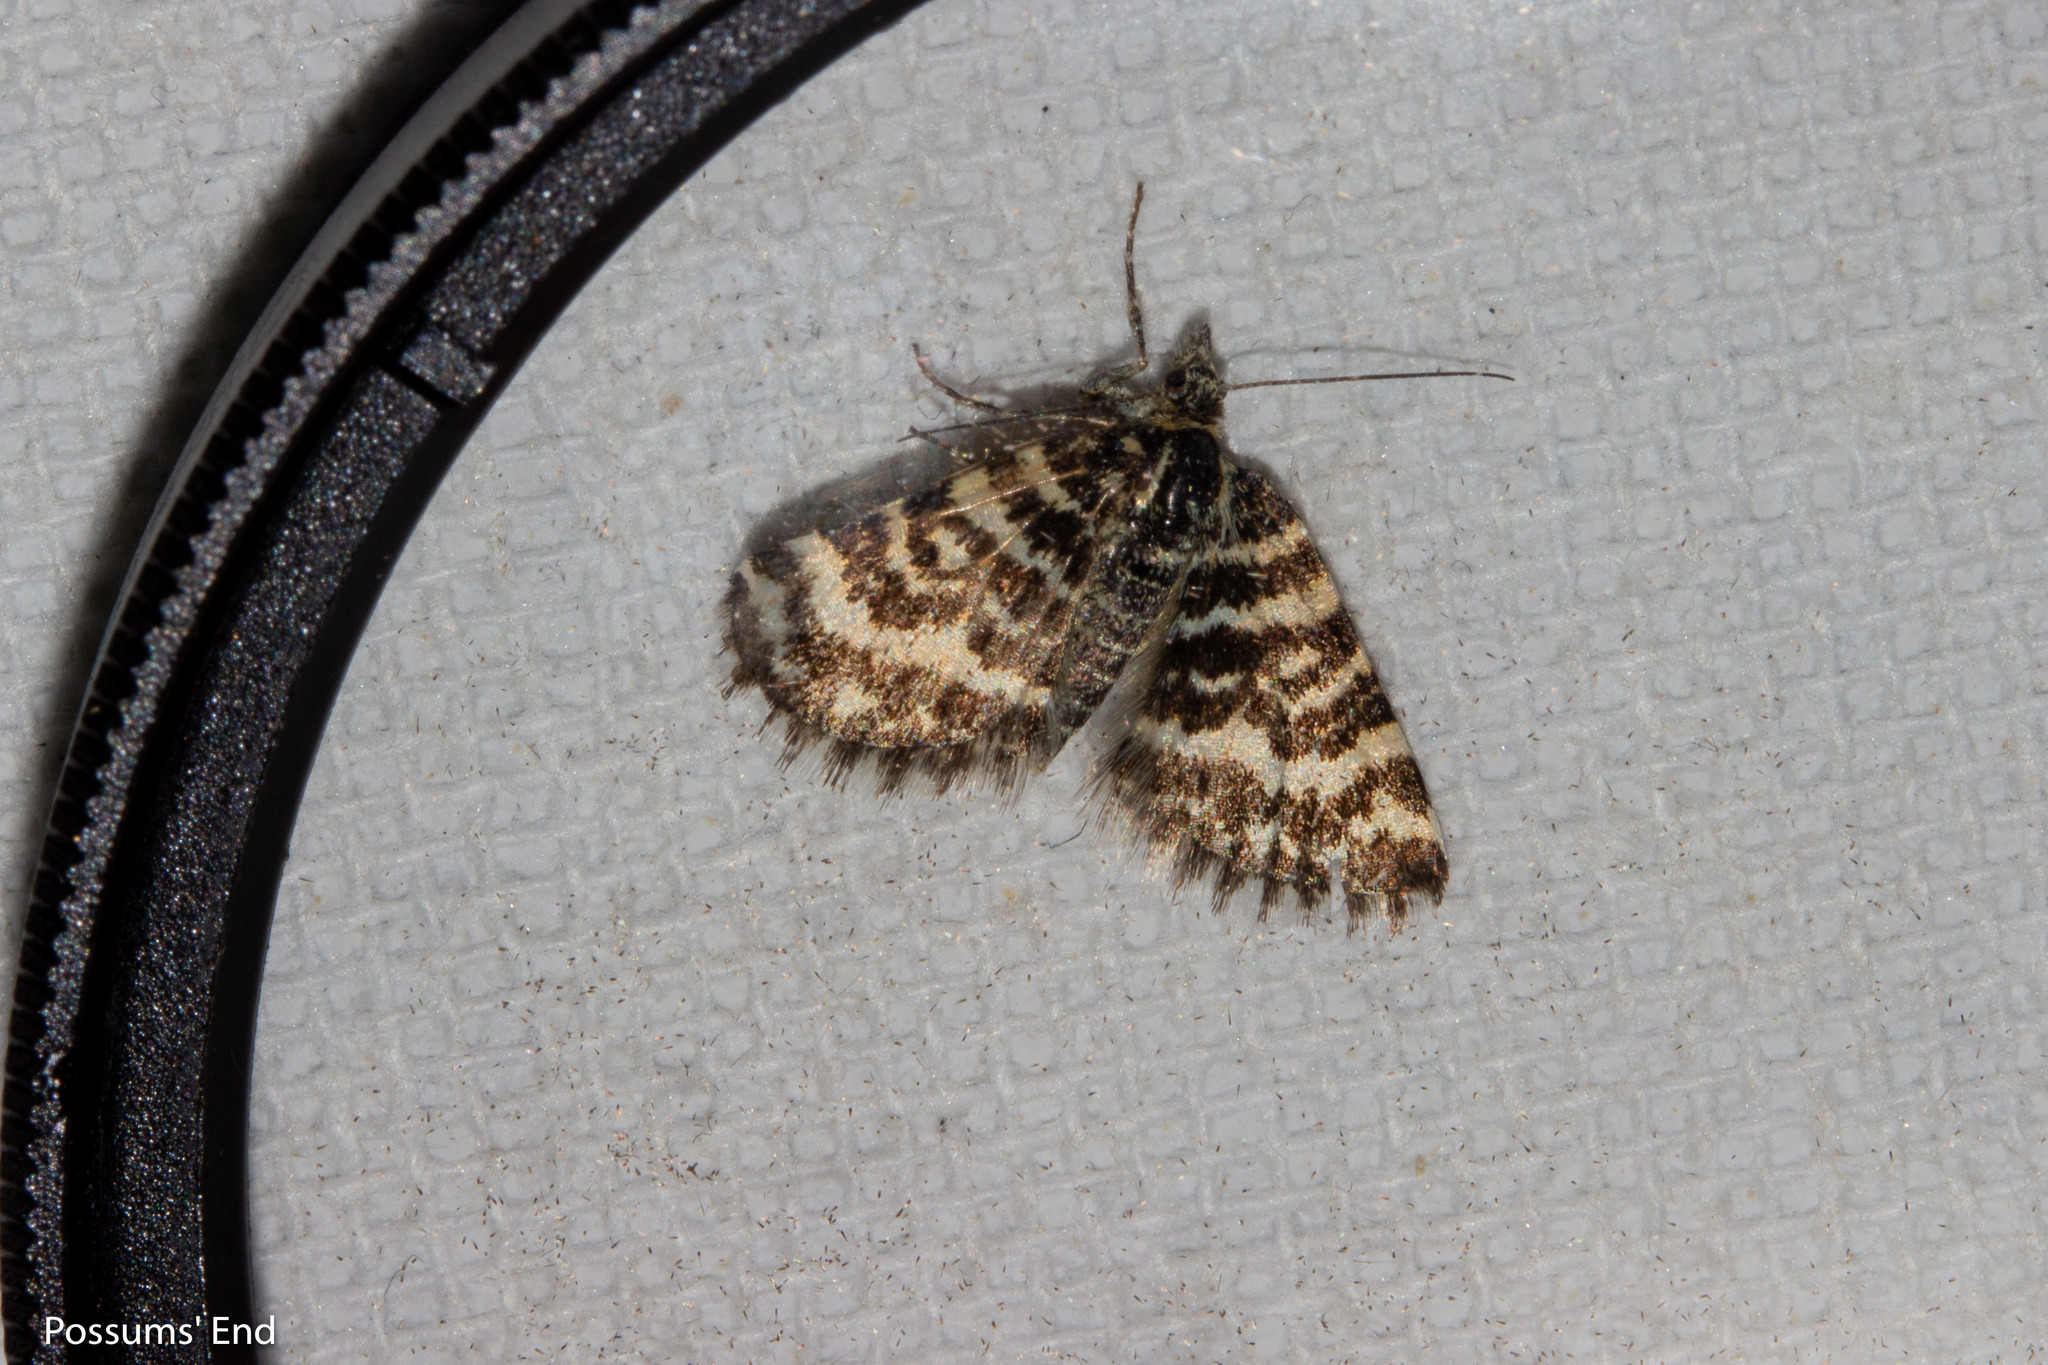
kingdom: Animalia
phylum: Arthropoda
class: Insecta
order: Lepidoptera
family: Geometridae
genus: Notoreas
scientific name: Notoreas hexaleuca
